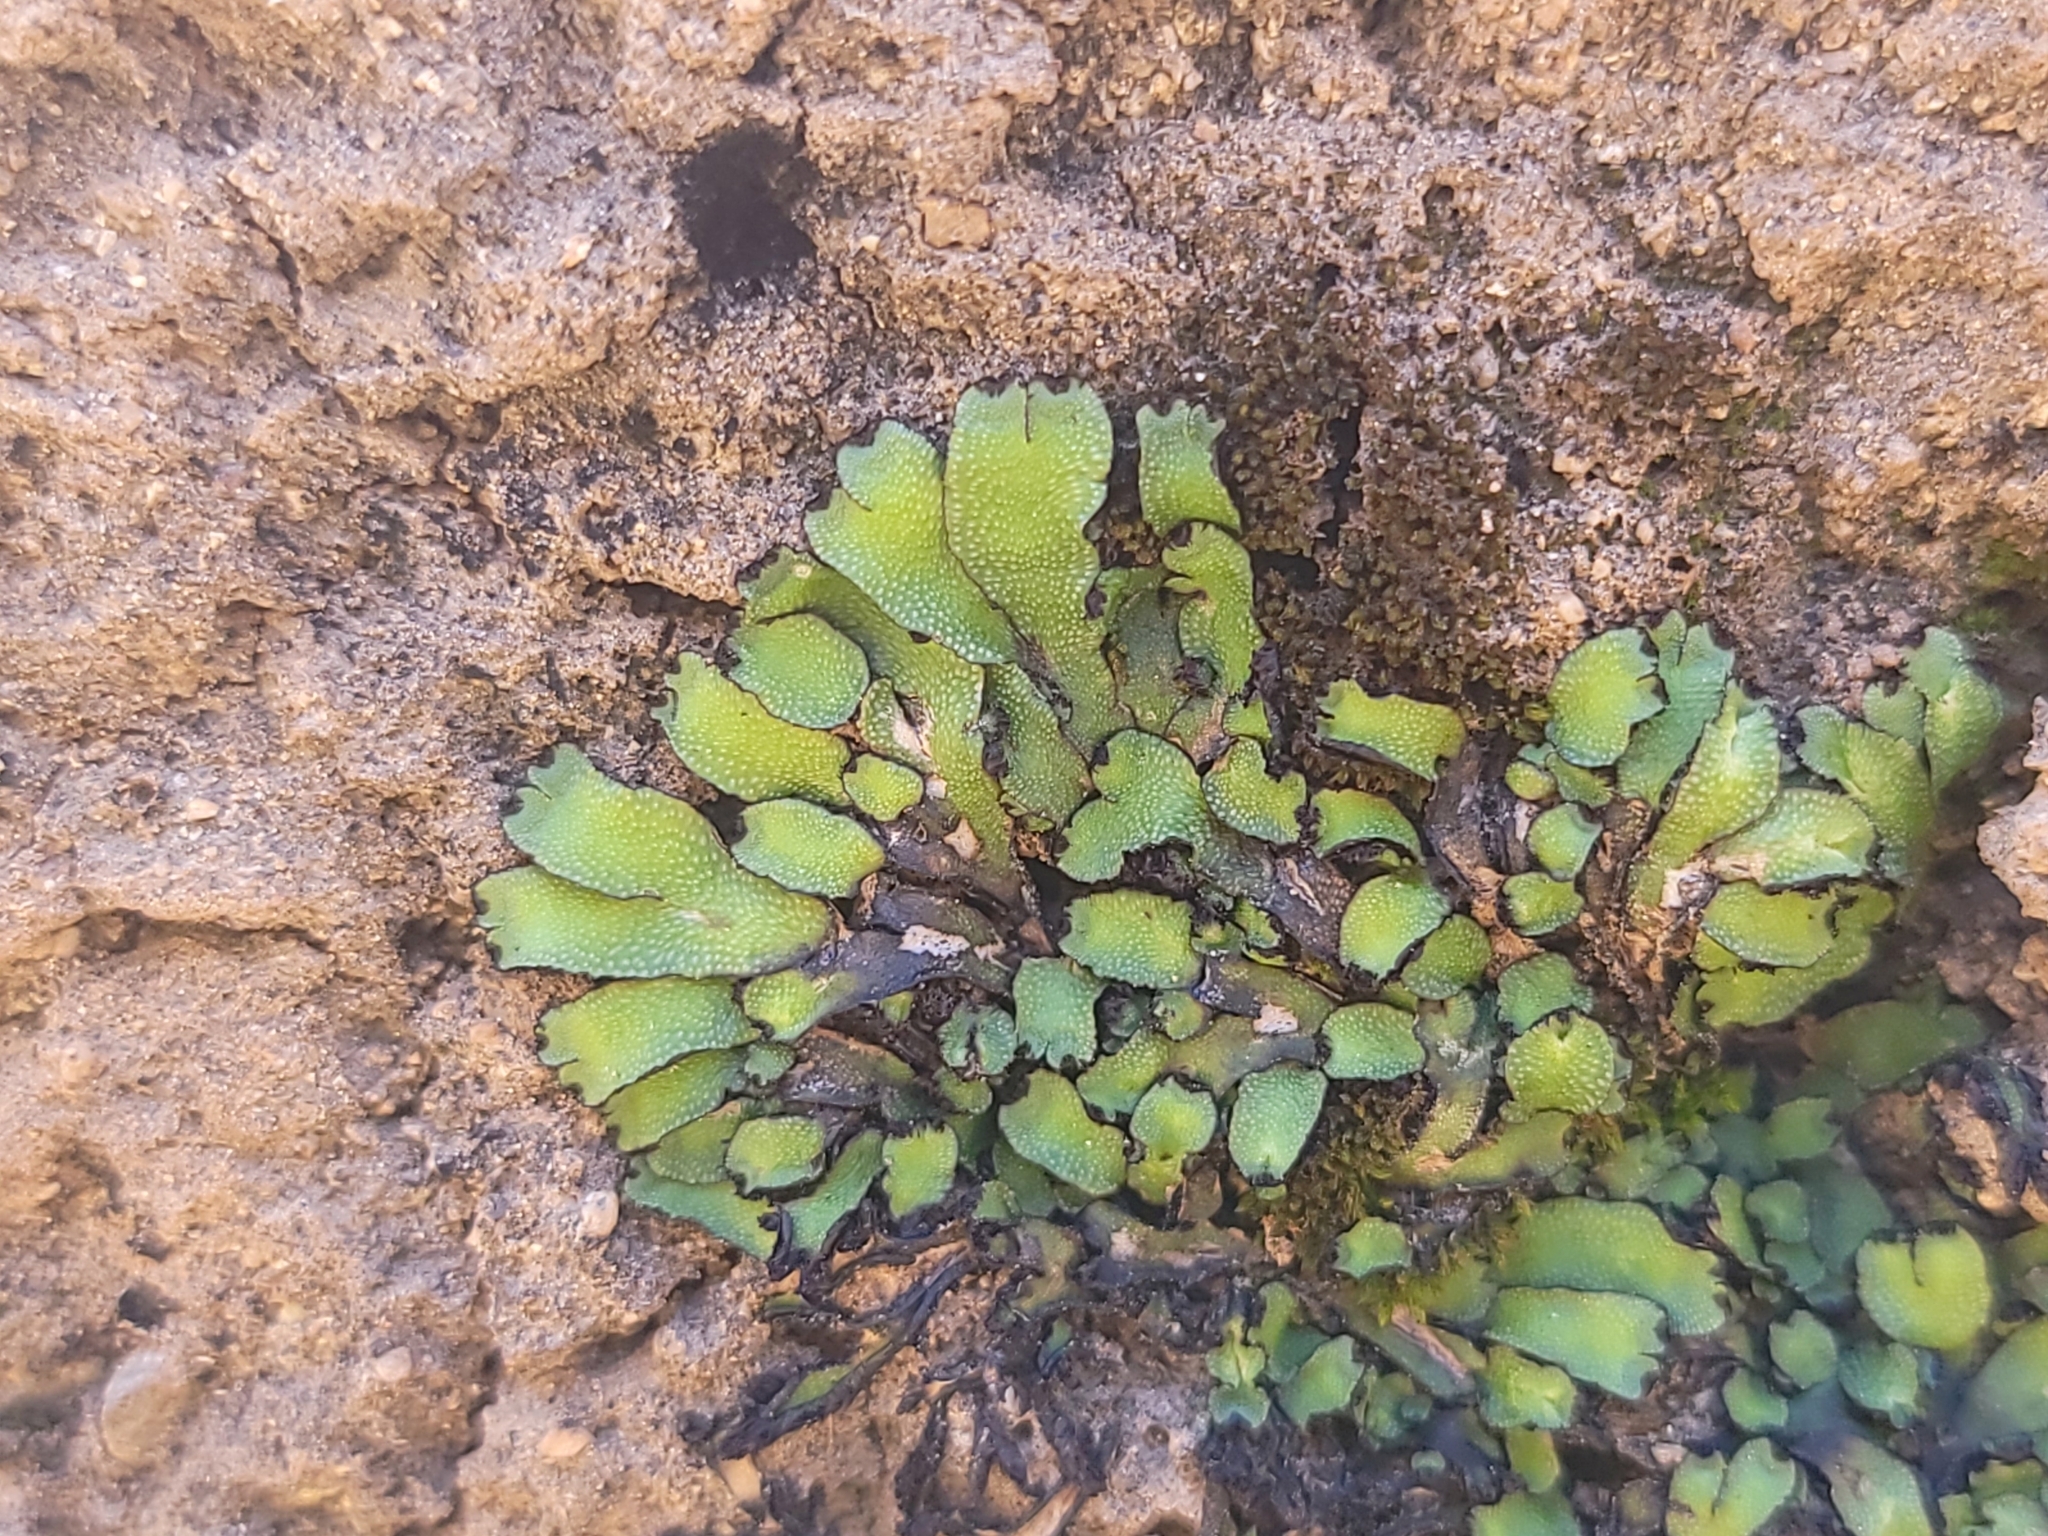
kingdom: Plantae
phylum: Marchantiophyta
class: Marchantiopsida
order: Marchantiales
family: Targioniaceae
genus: Targionia
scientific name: Targionia hypophylla
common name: Orobus-seed liverwort
